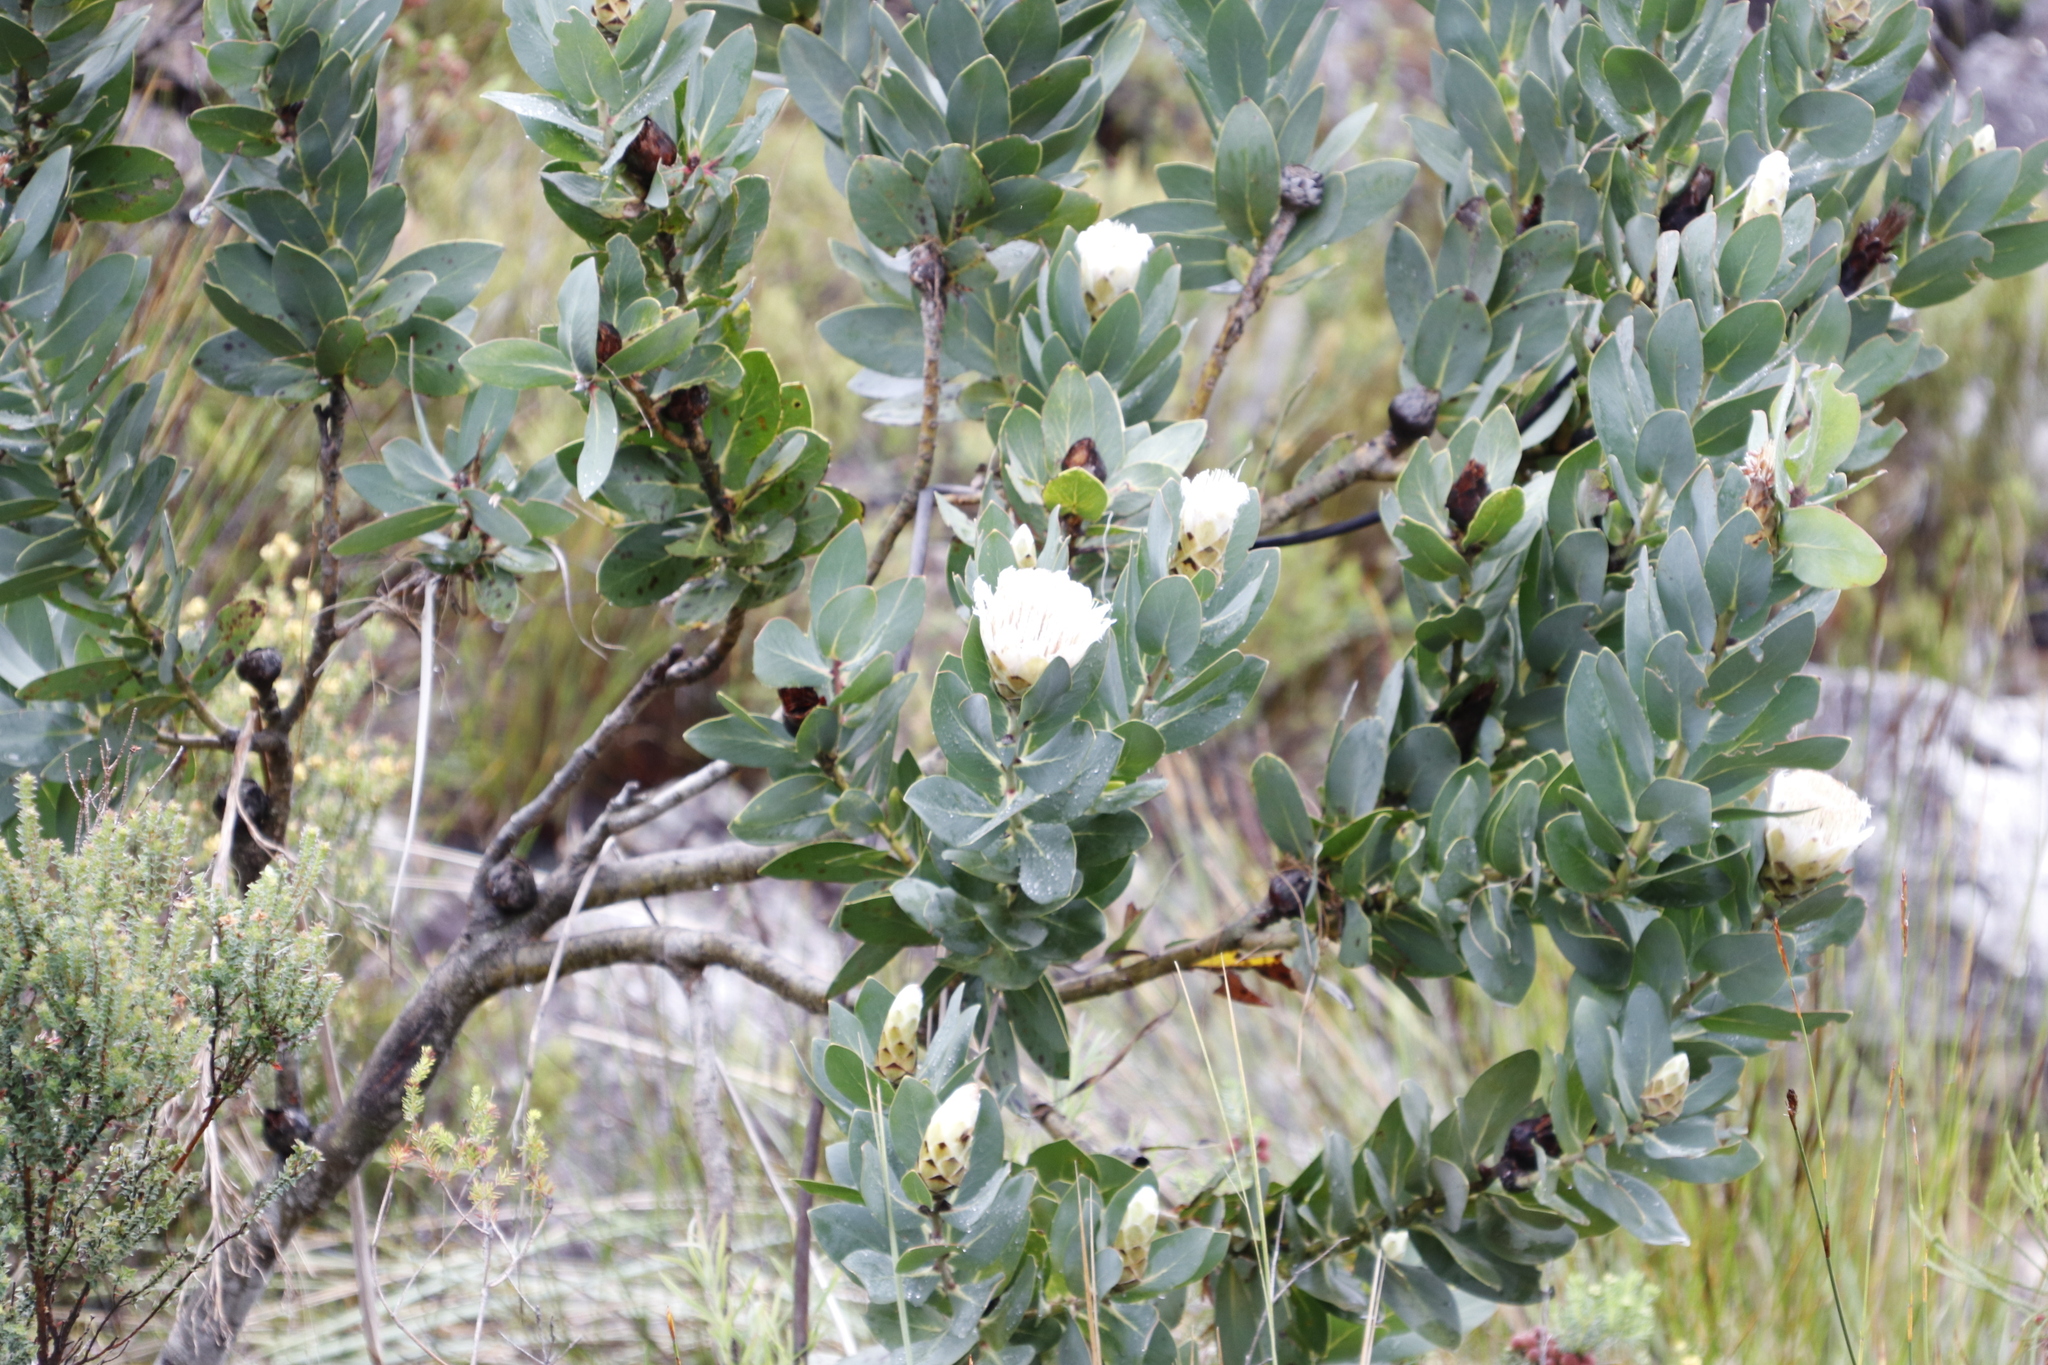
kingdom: Plantae
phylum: Tracheophyta
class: Magnoliopsida
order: Proteales
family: Proteaceae
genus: Protea
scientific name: Protea lacticolor
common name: Hottentot sugarbush
